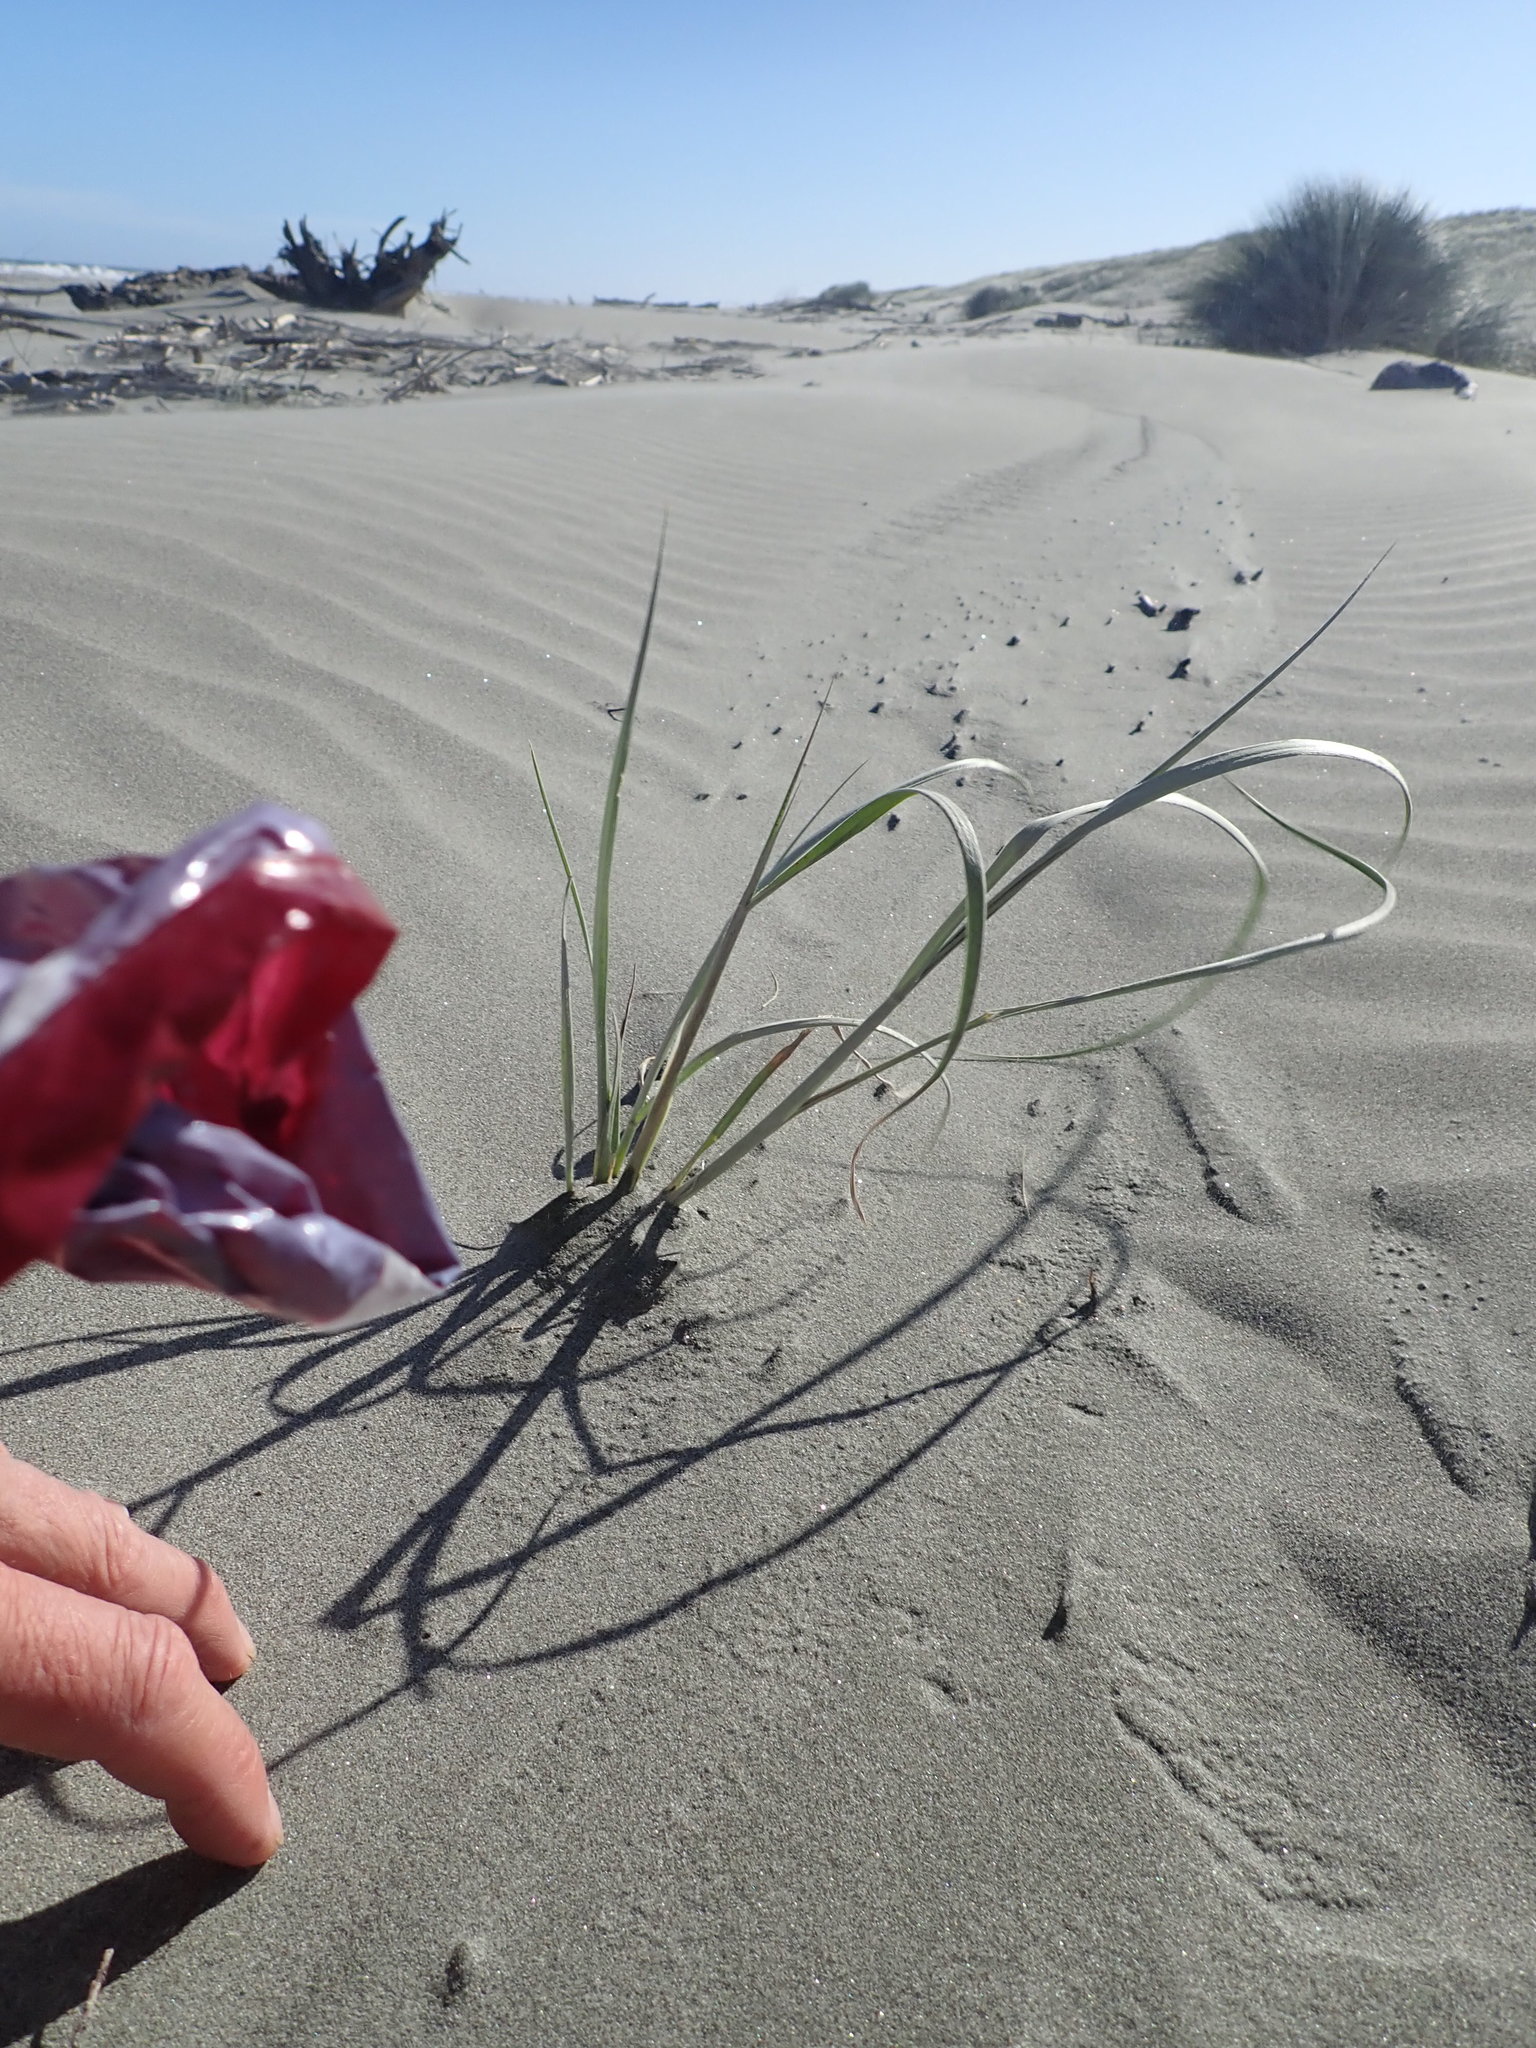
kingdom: Plantae
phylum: Tracheophyta
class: Liliopsida
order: Poales
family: Poaceae
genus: Spinifex
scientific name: Spinifex sericeus
